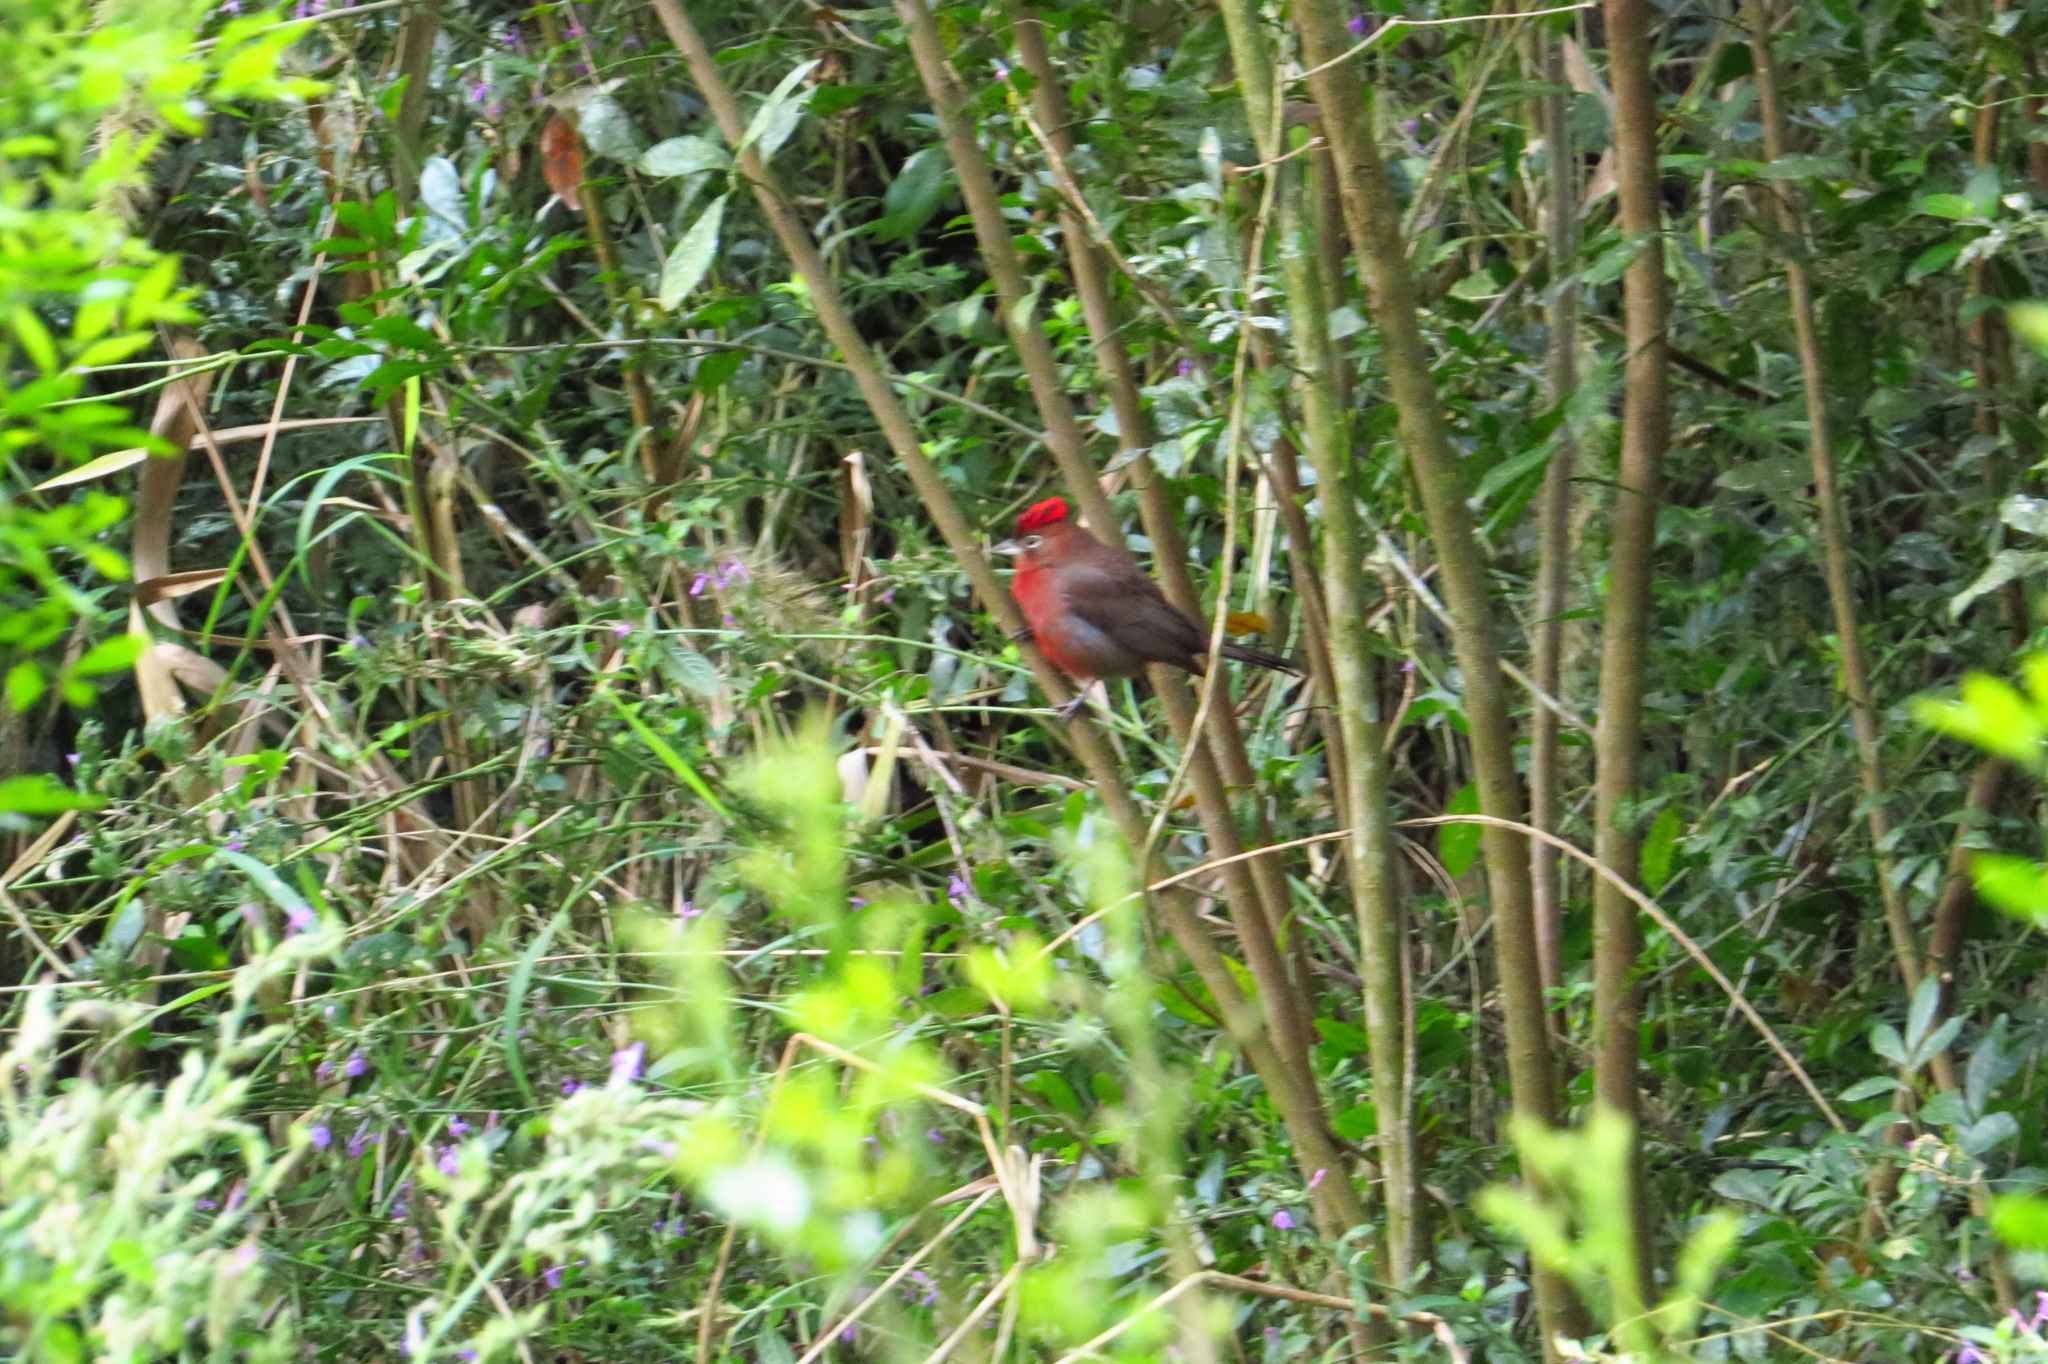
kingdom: Animalia
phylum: Chordata
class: Aves
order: Passeriformes
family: Thraupidae
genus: Coryphospingus
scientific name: Coryphospingus cucullatus
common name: Red pileated finch
